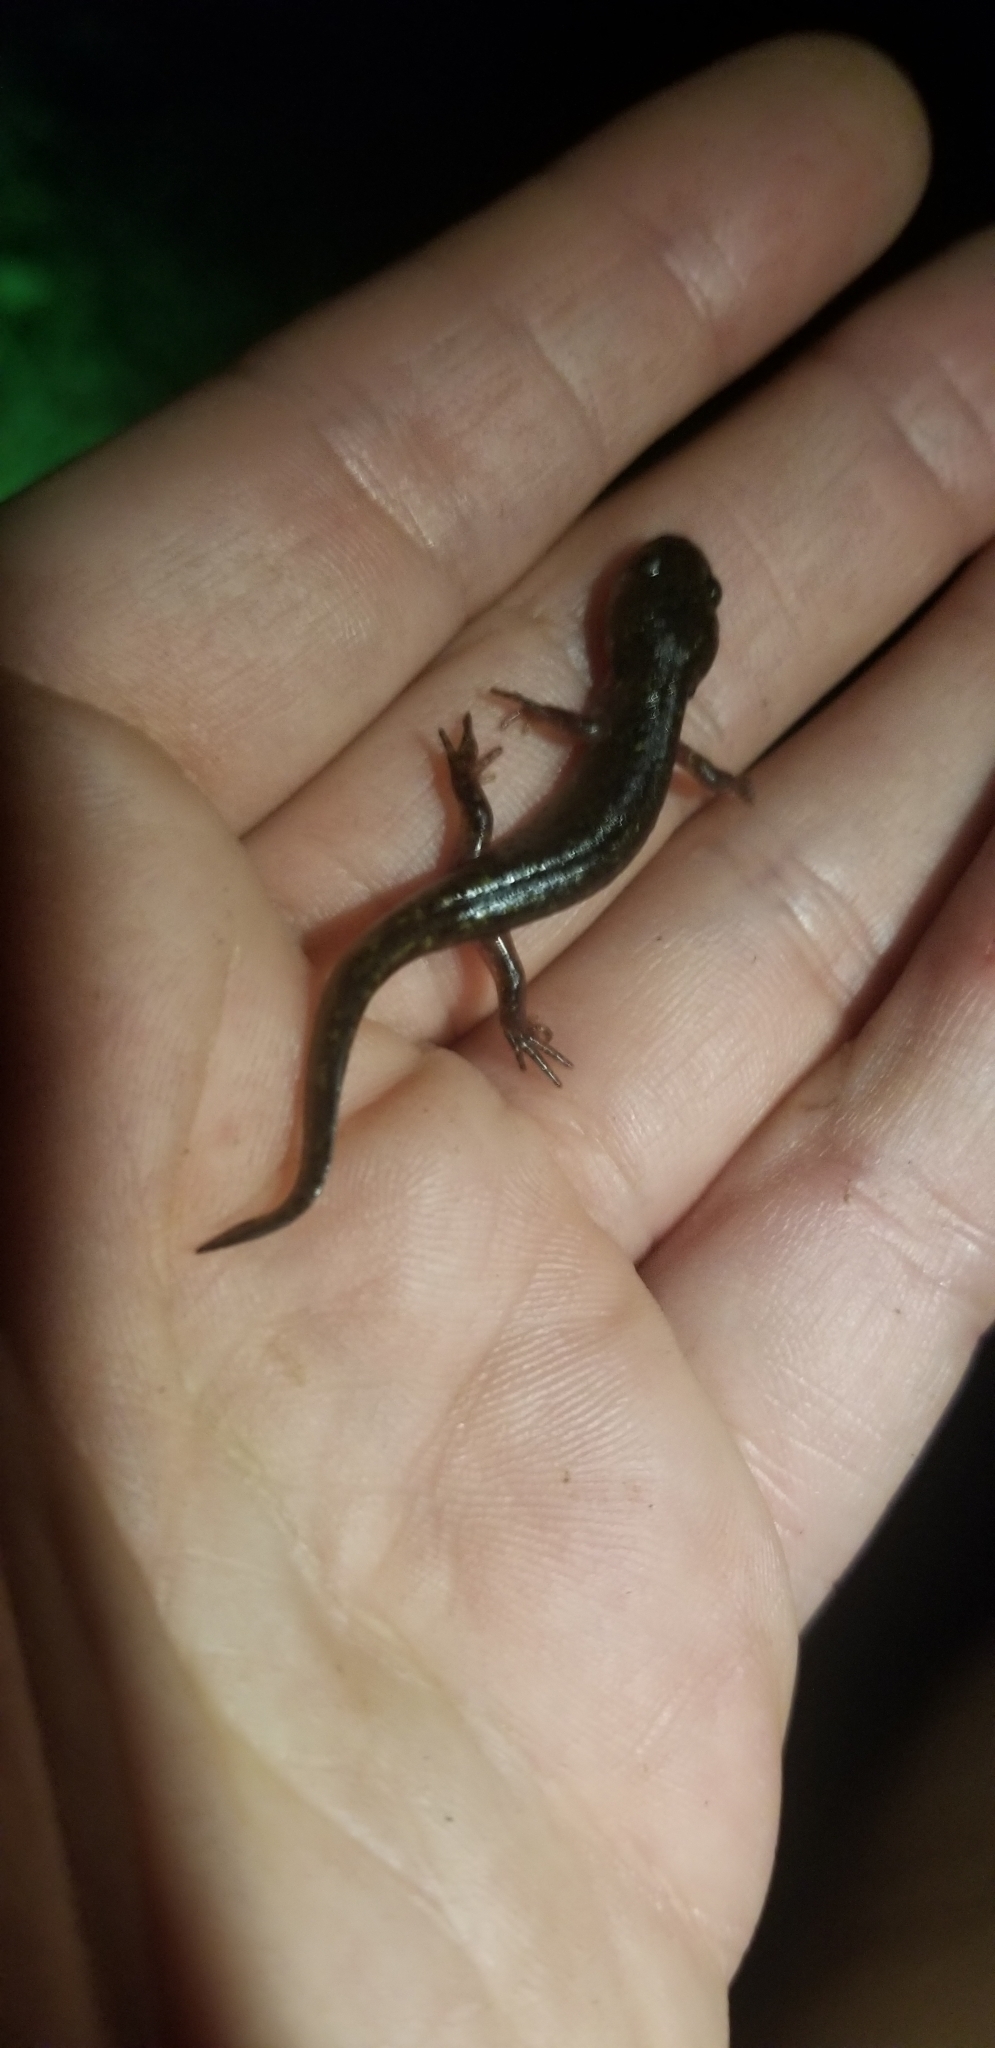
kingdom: Animalia
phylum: Chordata
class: Amphibia
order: Caudata
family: Ambystomatidae
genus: Ambystoma
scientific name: Ambystoma maculatum
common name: Spotted salamander
